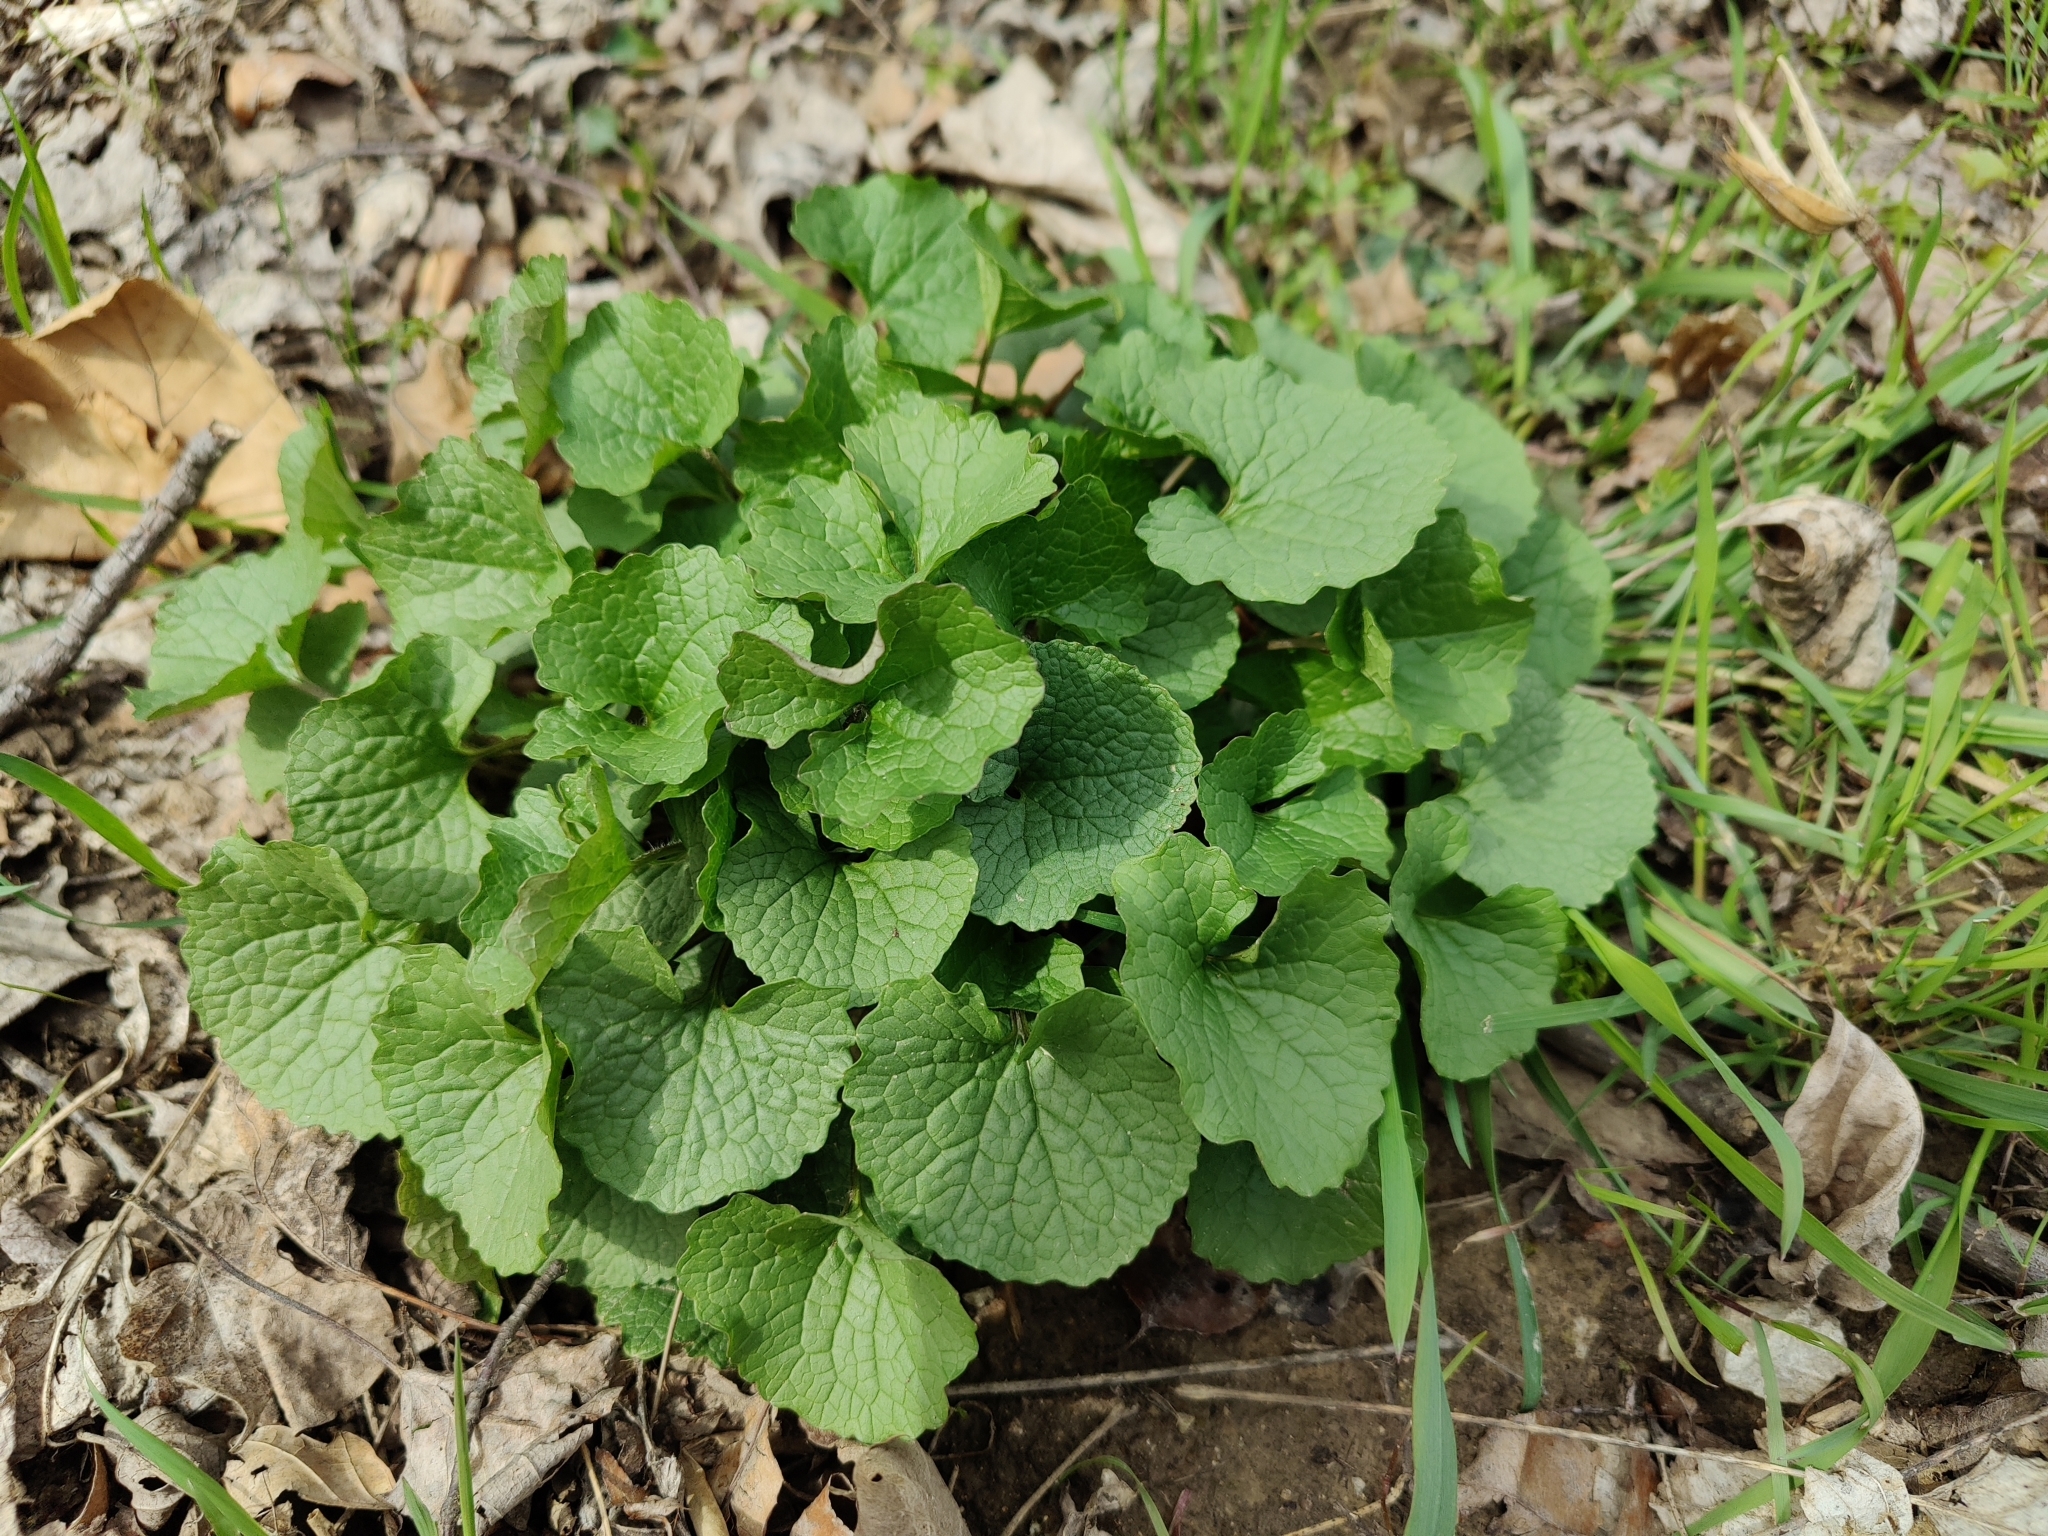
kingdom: Plantae
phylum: Tracheophyta
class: Magnoliopsida
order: Brassicales
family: Brassicaceae
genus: Alliaria
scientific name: Alliaria petiolata
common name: Garlic mustard
